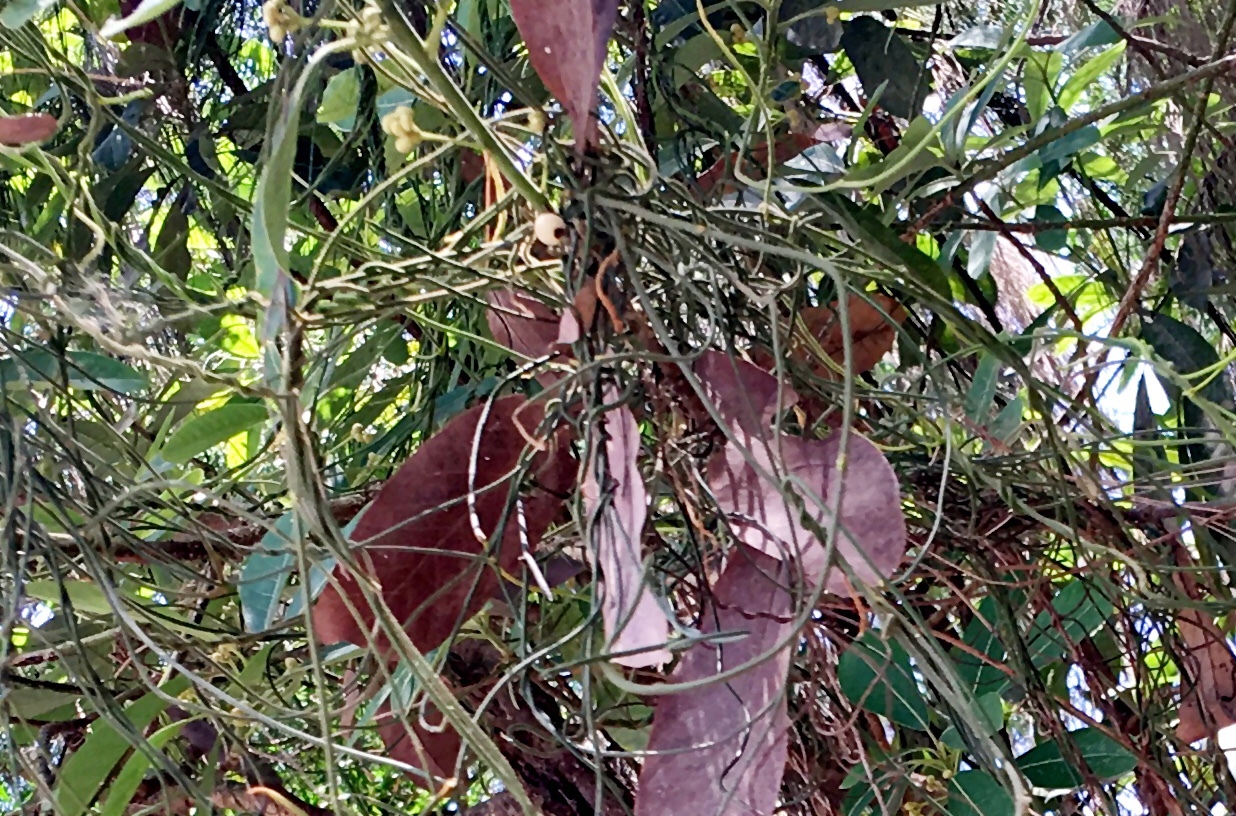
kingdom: Plantae
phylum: Tracheophyta
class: Magnoliopsida
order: Laurales
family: Lauraceae
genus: Cassytha
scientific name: Cassytha filiformis
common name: Dodder-laurel
